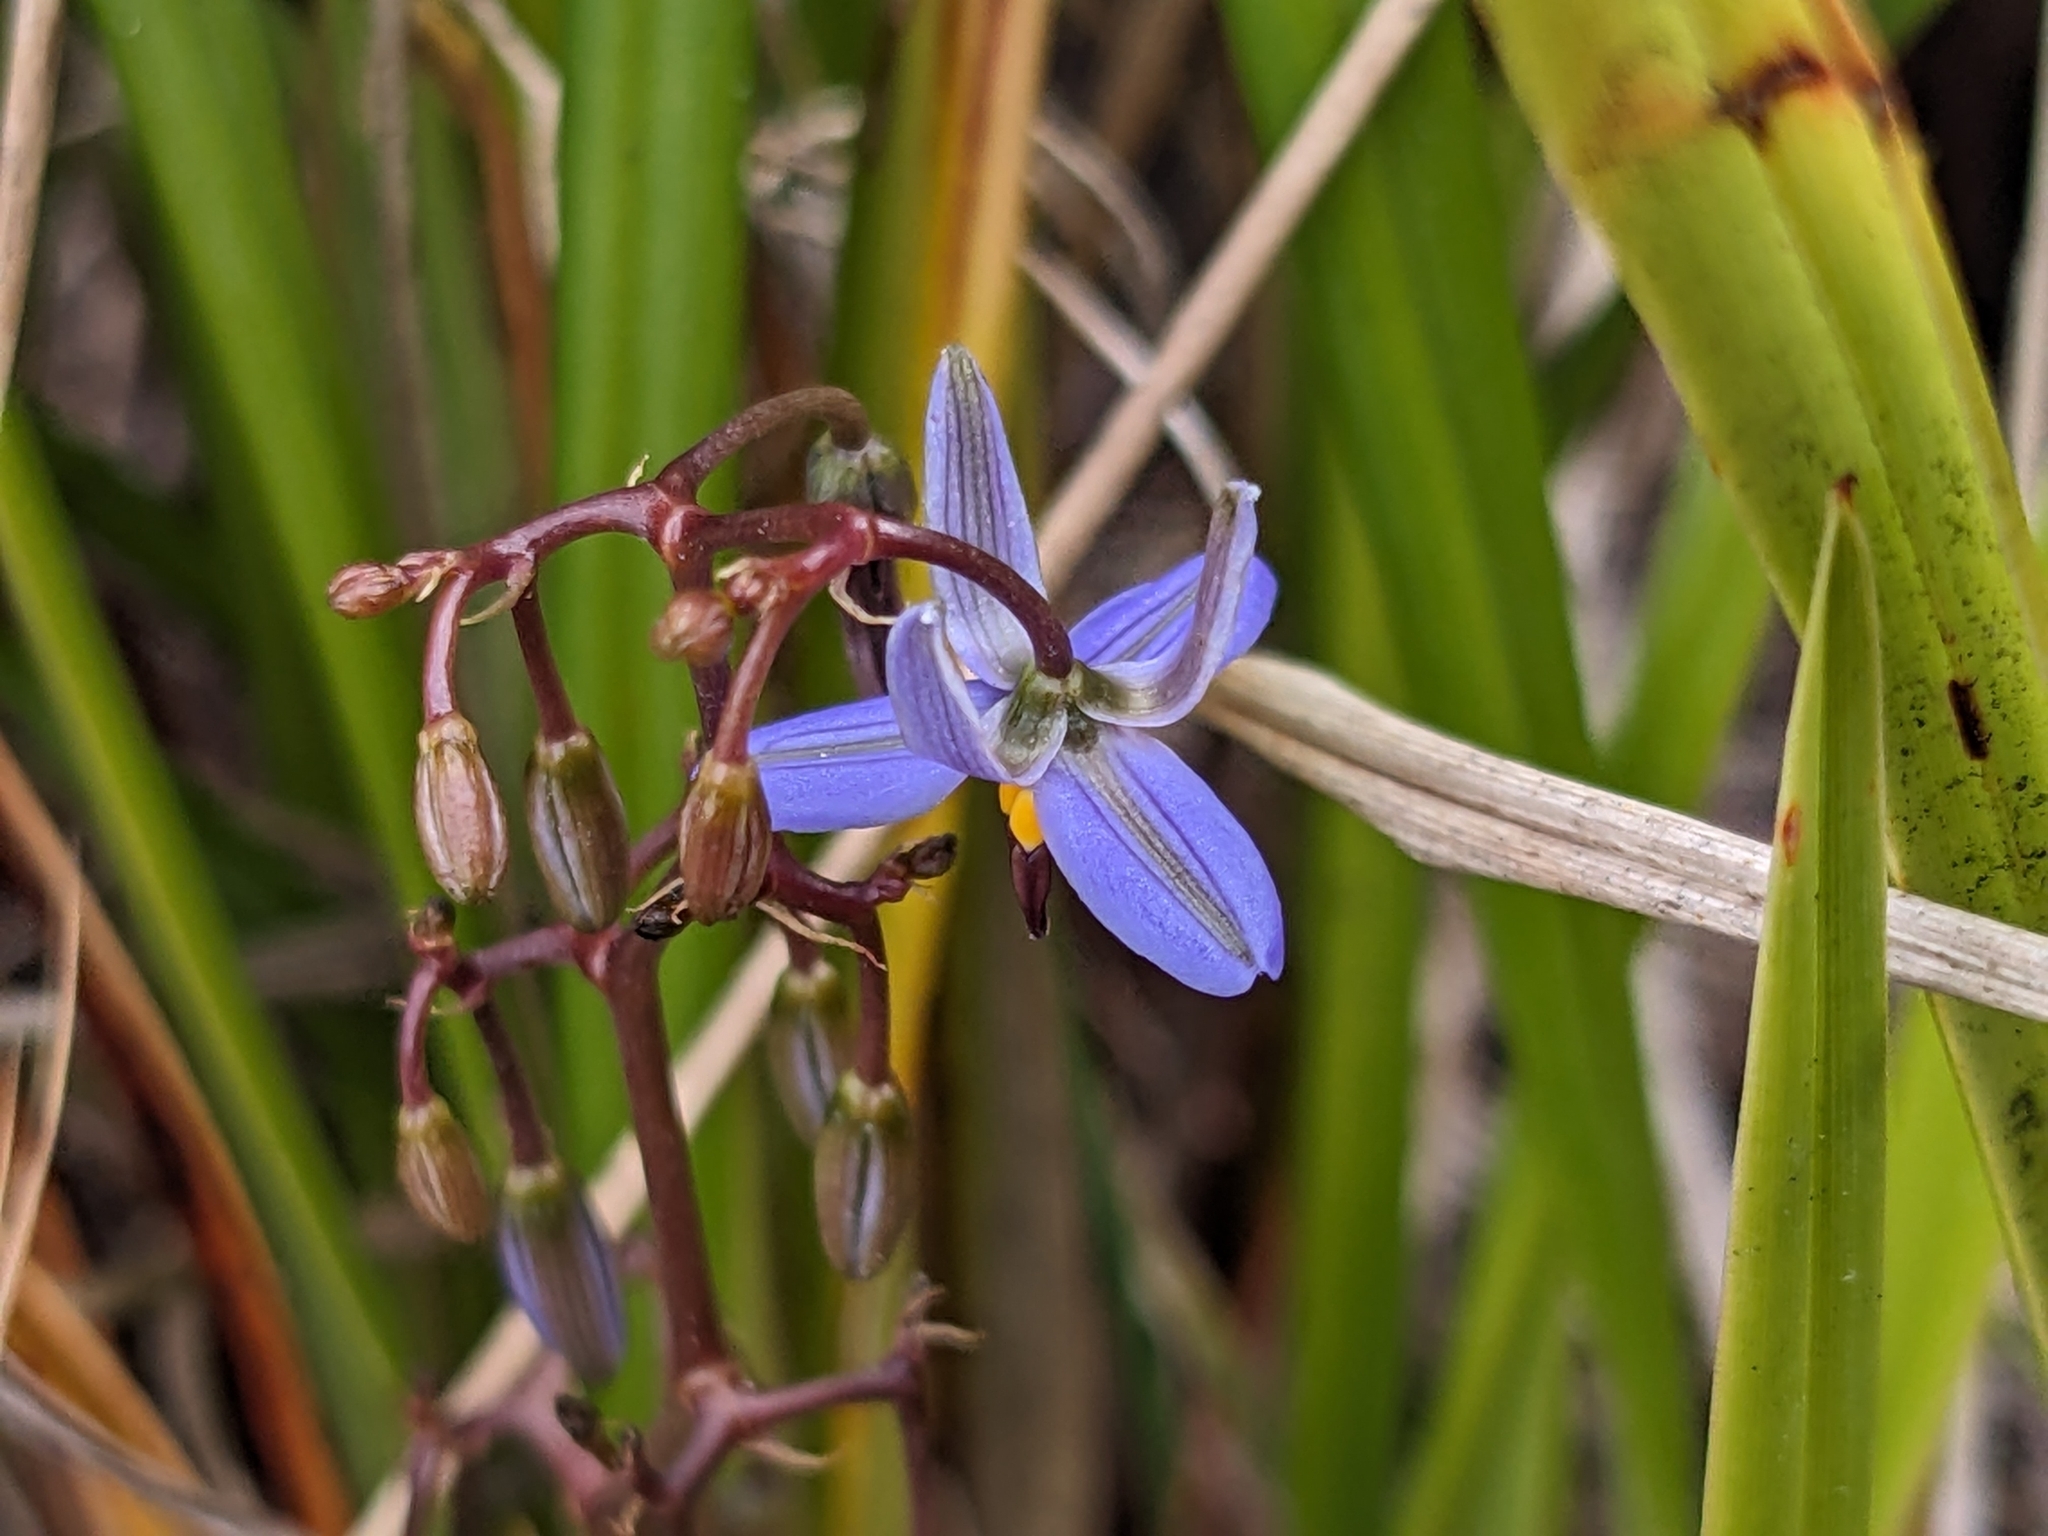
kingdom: Plantae
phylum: Tracheophyta
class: Liliopsida
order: Asparagales
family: Asphodelaceae
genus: Dianella
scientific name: Dianella brevicaulis
